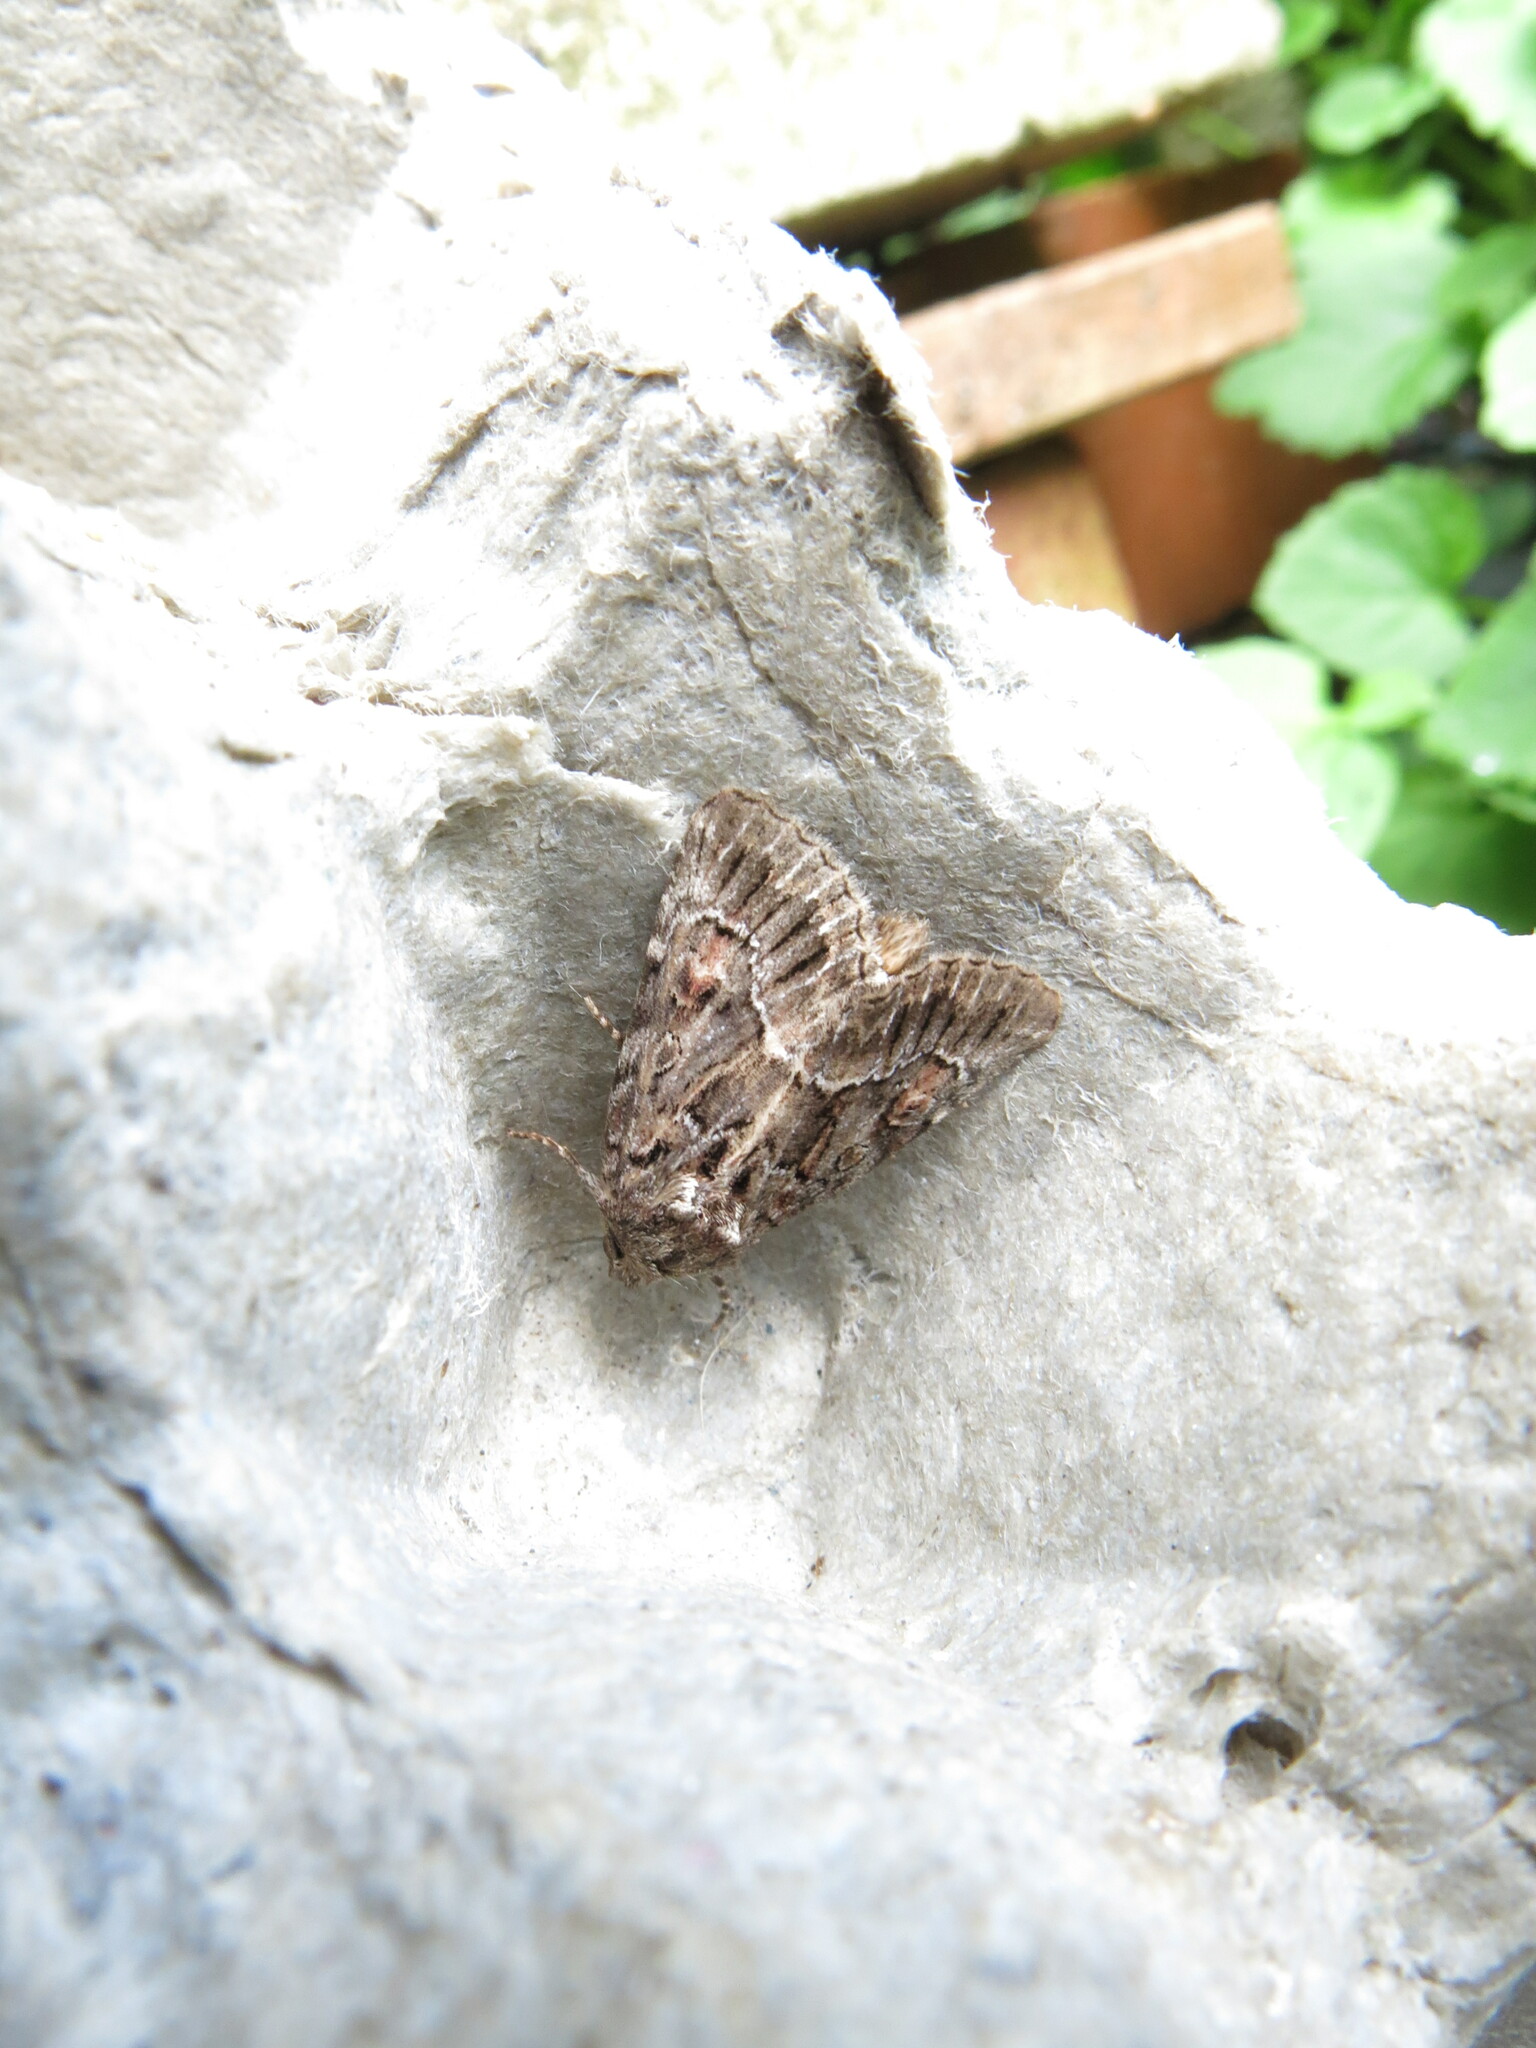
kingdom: Animalia
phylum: Arthropoda
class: Insecta
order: Lepidoptera
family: Noctuidae
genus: Thalpophila
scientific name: Thalpophila matura
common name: Straw underwing
